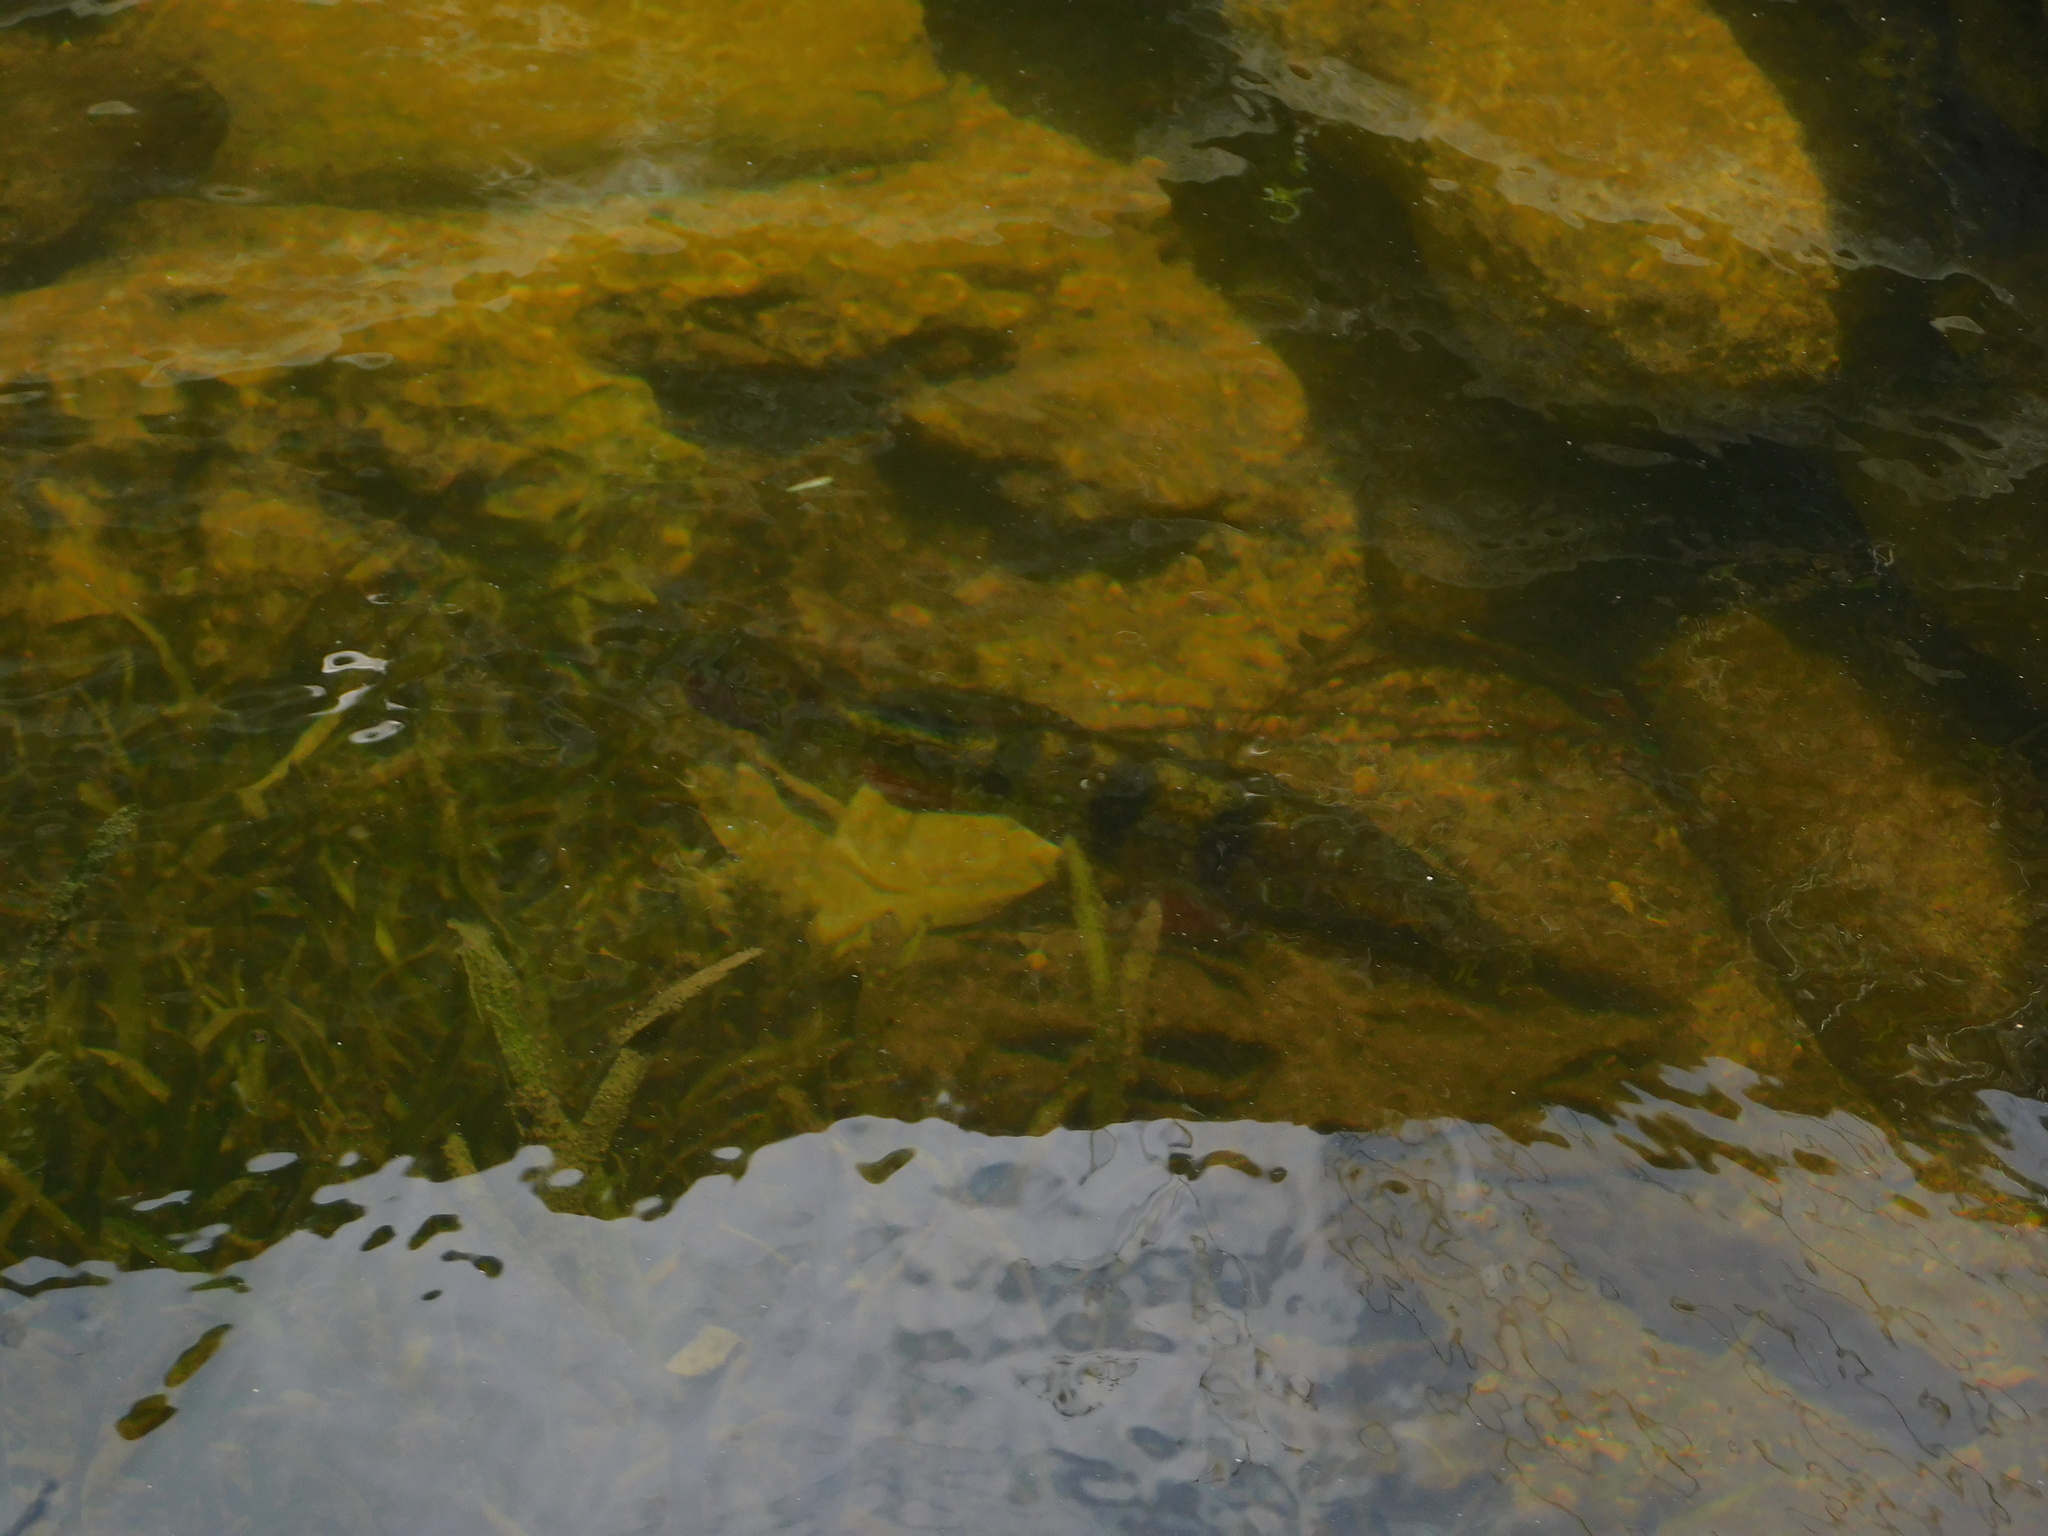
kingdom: Animalia
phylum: Chordata
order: Perciformes
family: Cichlidae
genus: Cichla
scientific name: Cichla ocellaris
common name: Peacock cichlid
